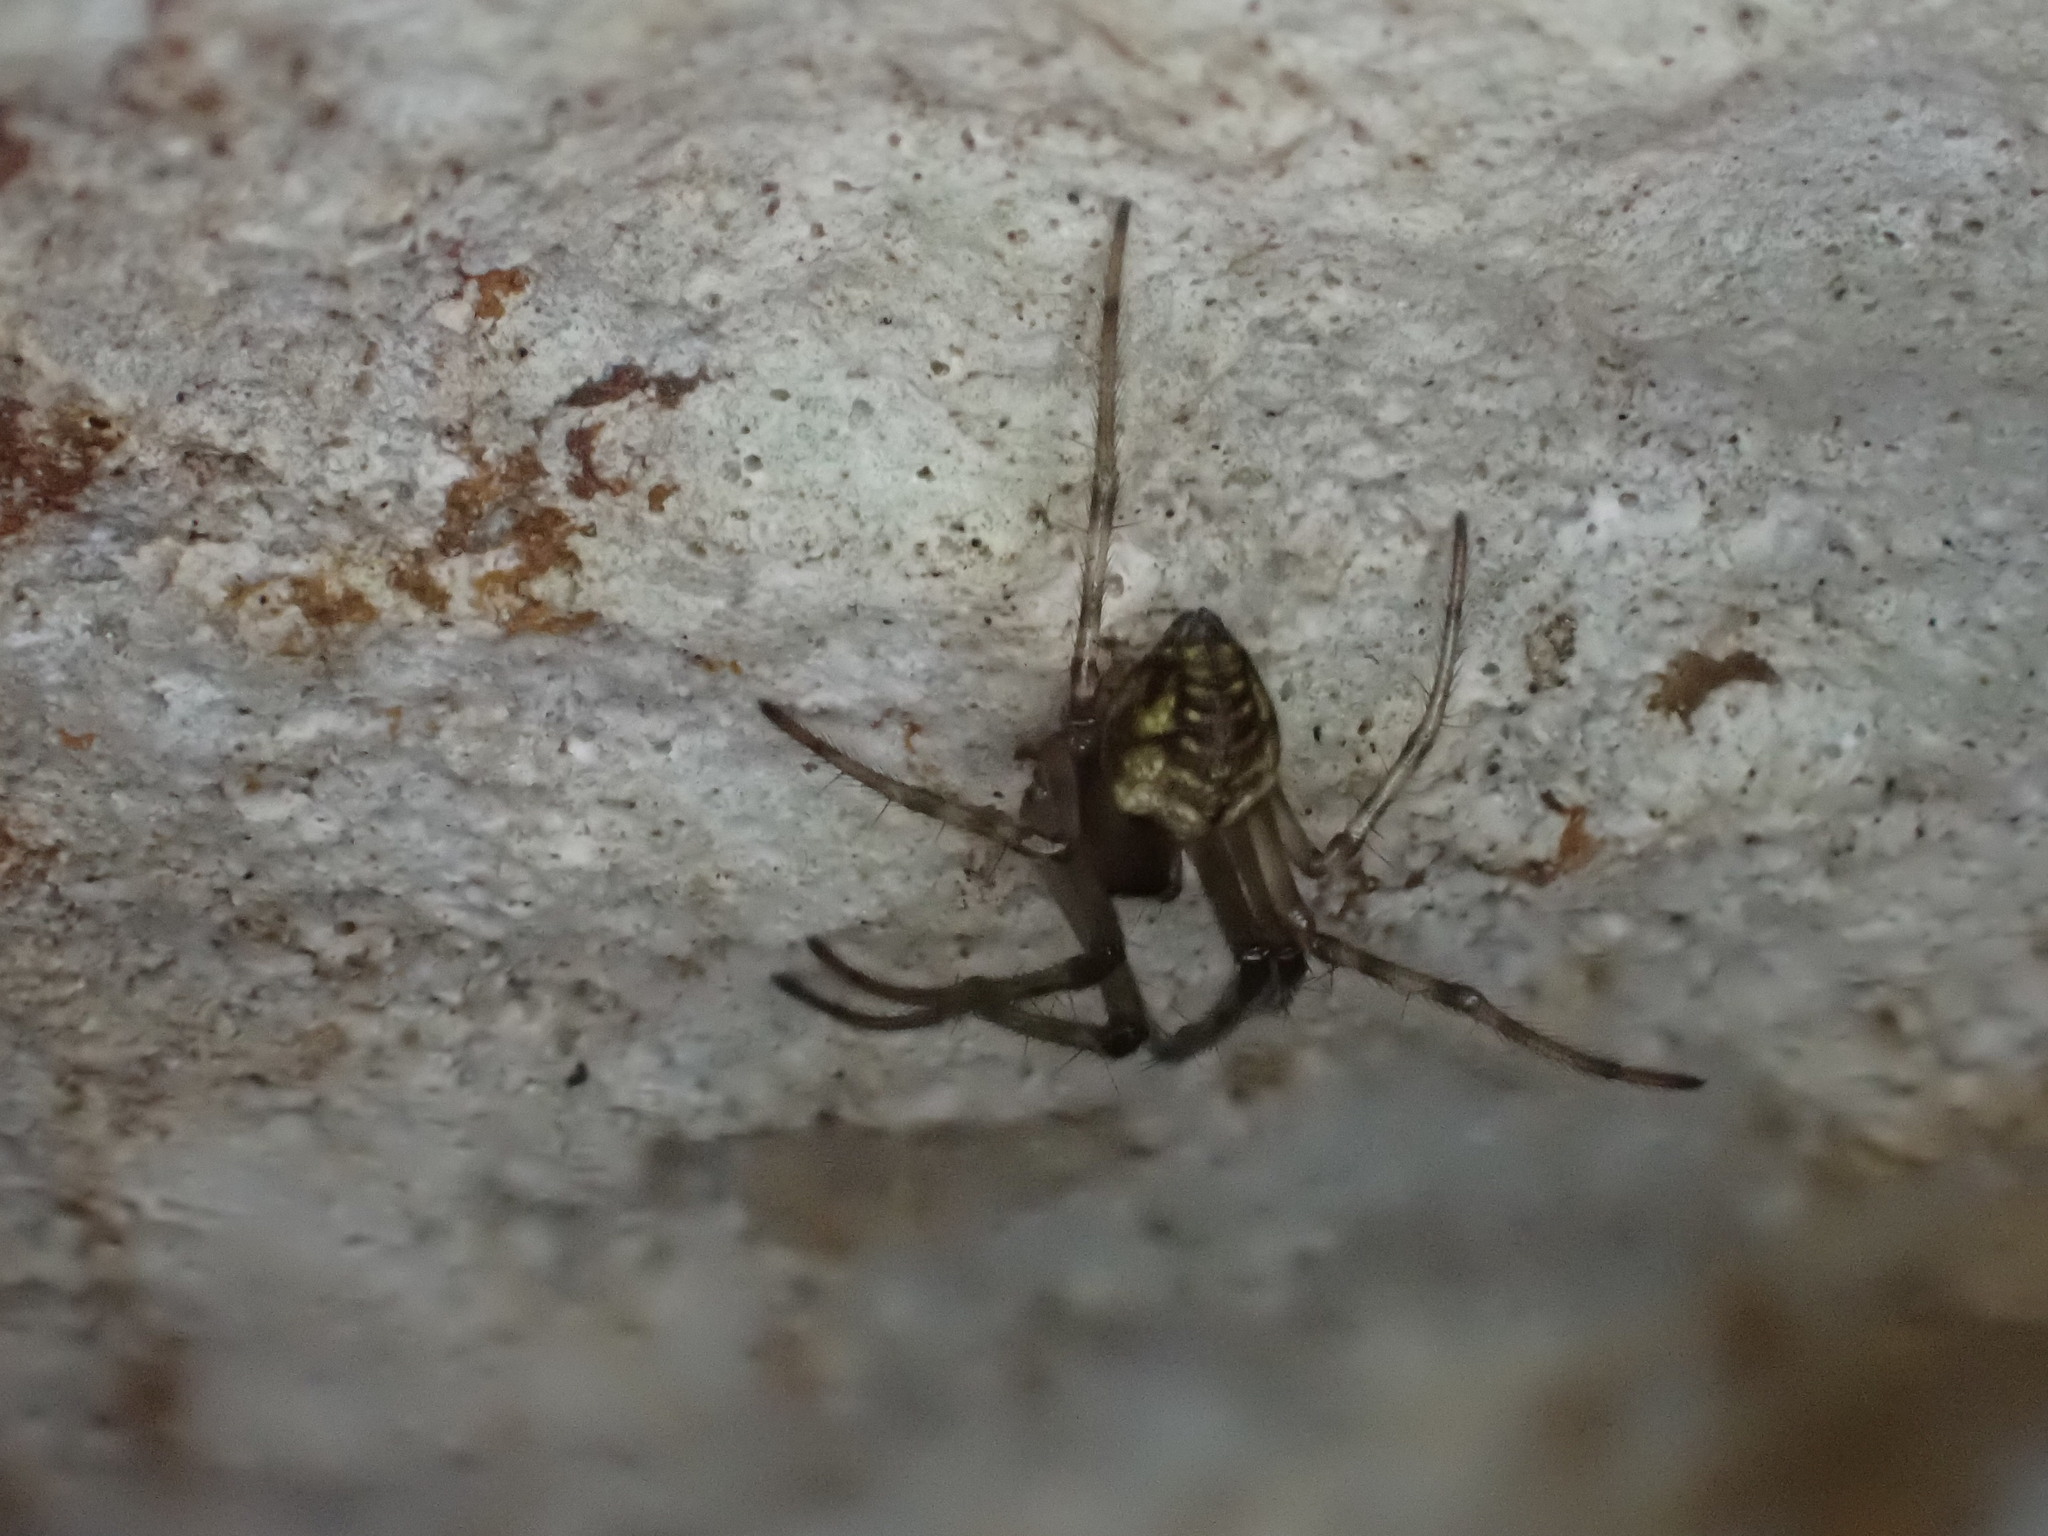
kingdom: Animalia
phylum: Arthropoda
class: Arachnida
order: Araneae
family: Tetragnathidae
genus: Meta
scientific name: Meta menardi
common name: Cave spider
